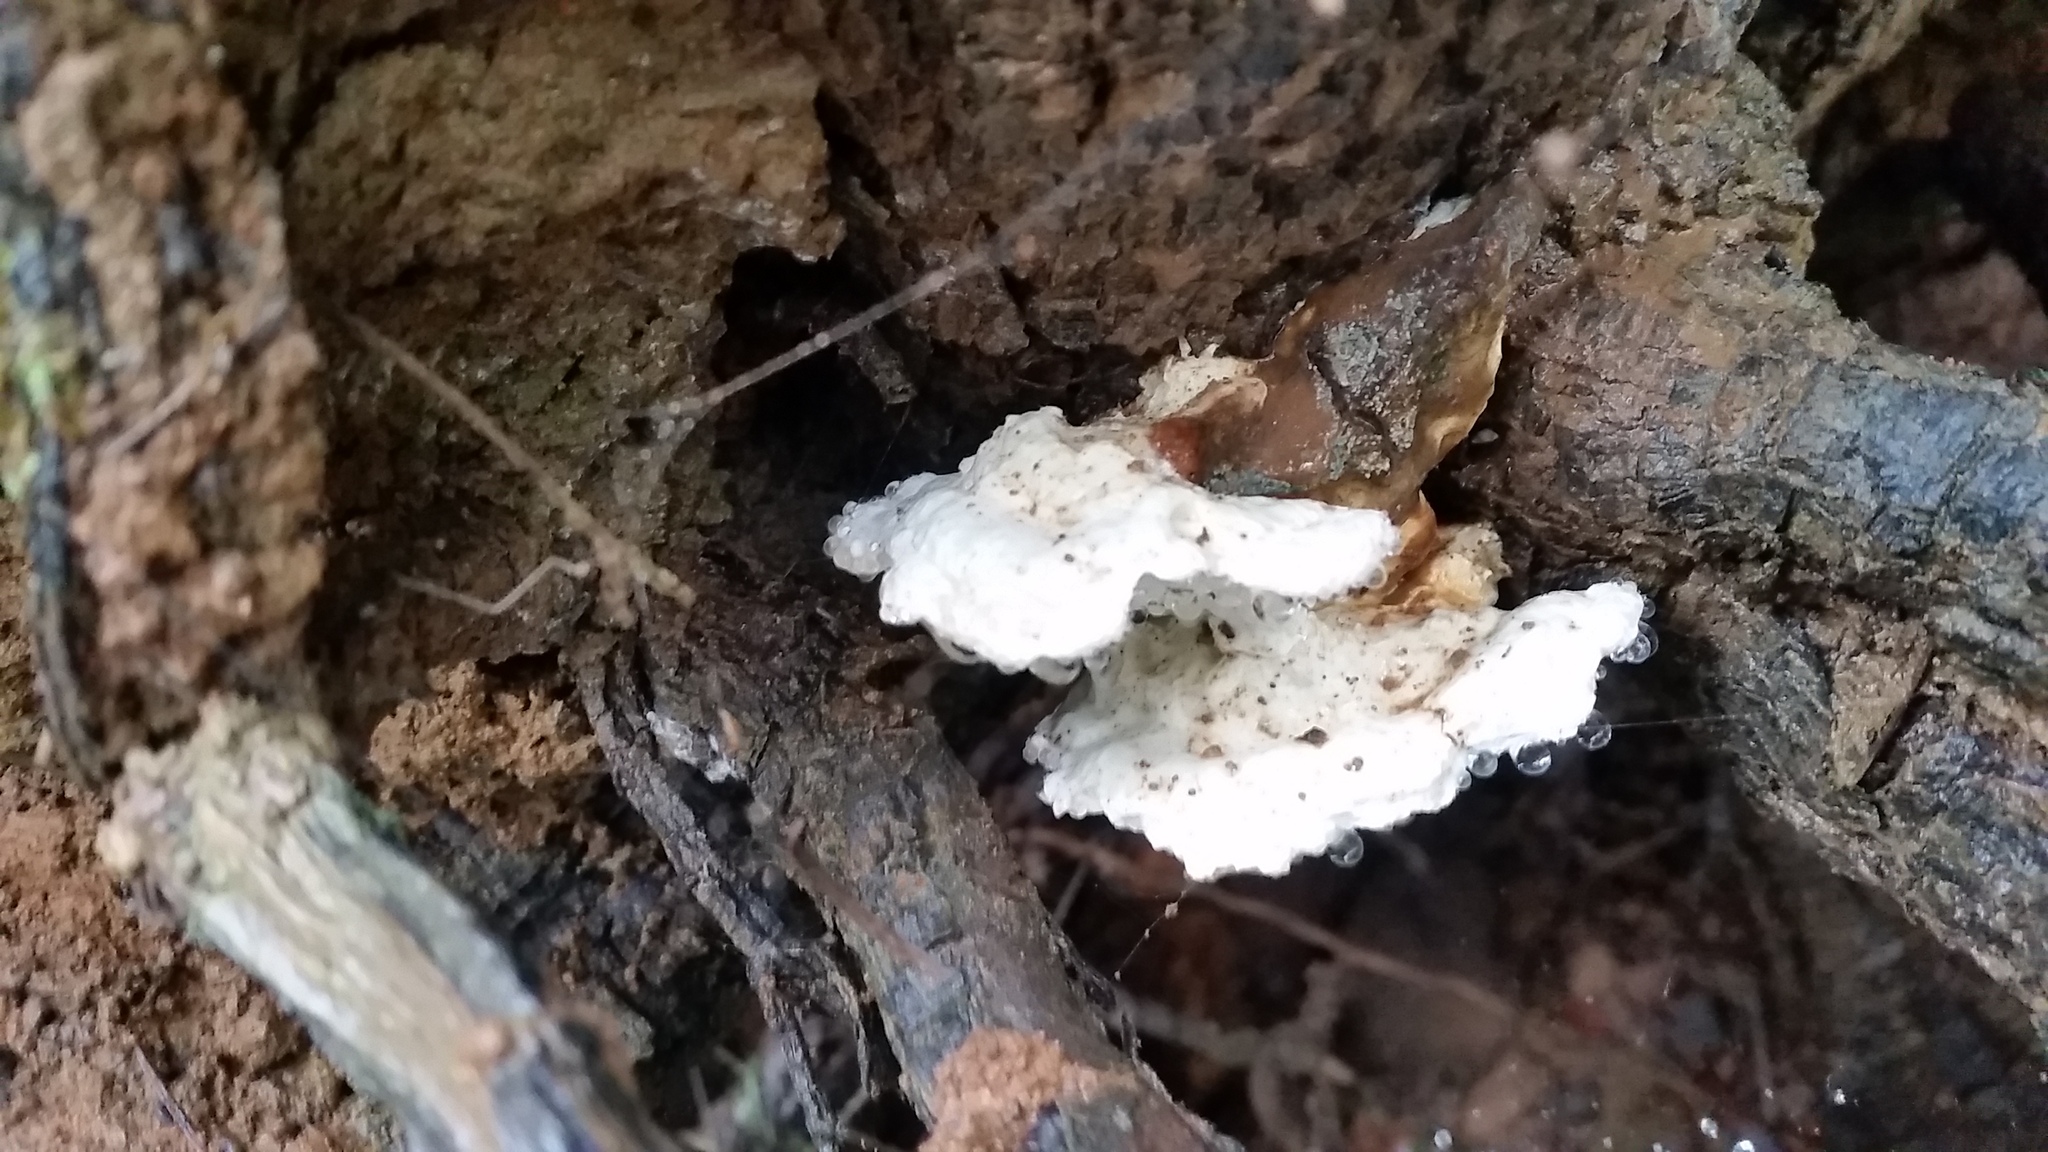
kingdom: Fungi
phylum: Basidiomycota
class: Agaricomycetes
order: Polyporales
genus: Fuscopostia
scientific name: Fuscopostia fragilis
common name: Brown-staining cheese polypore
